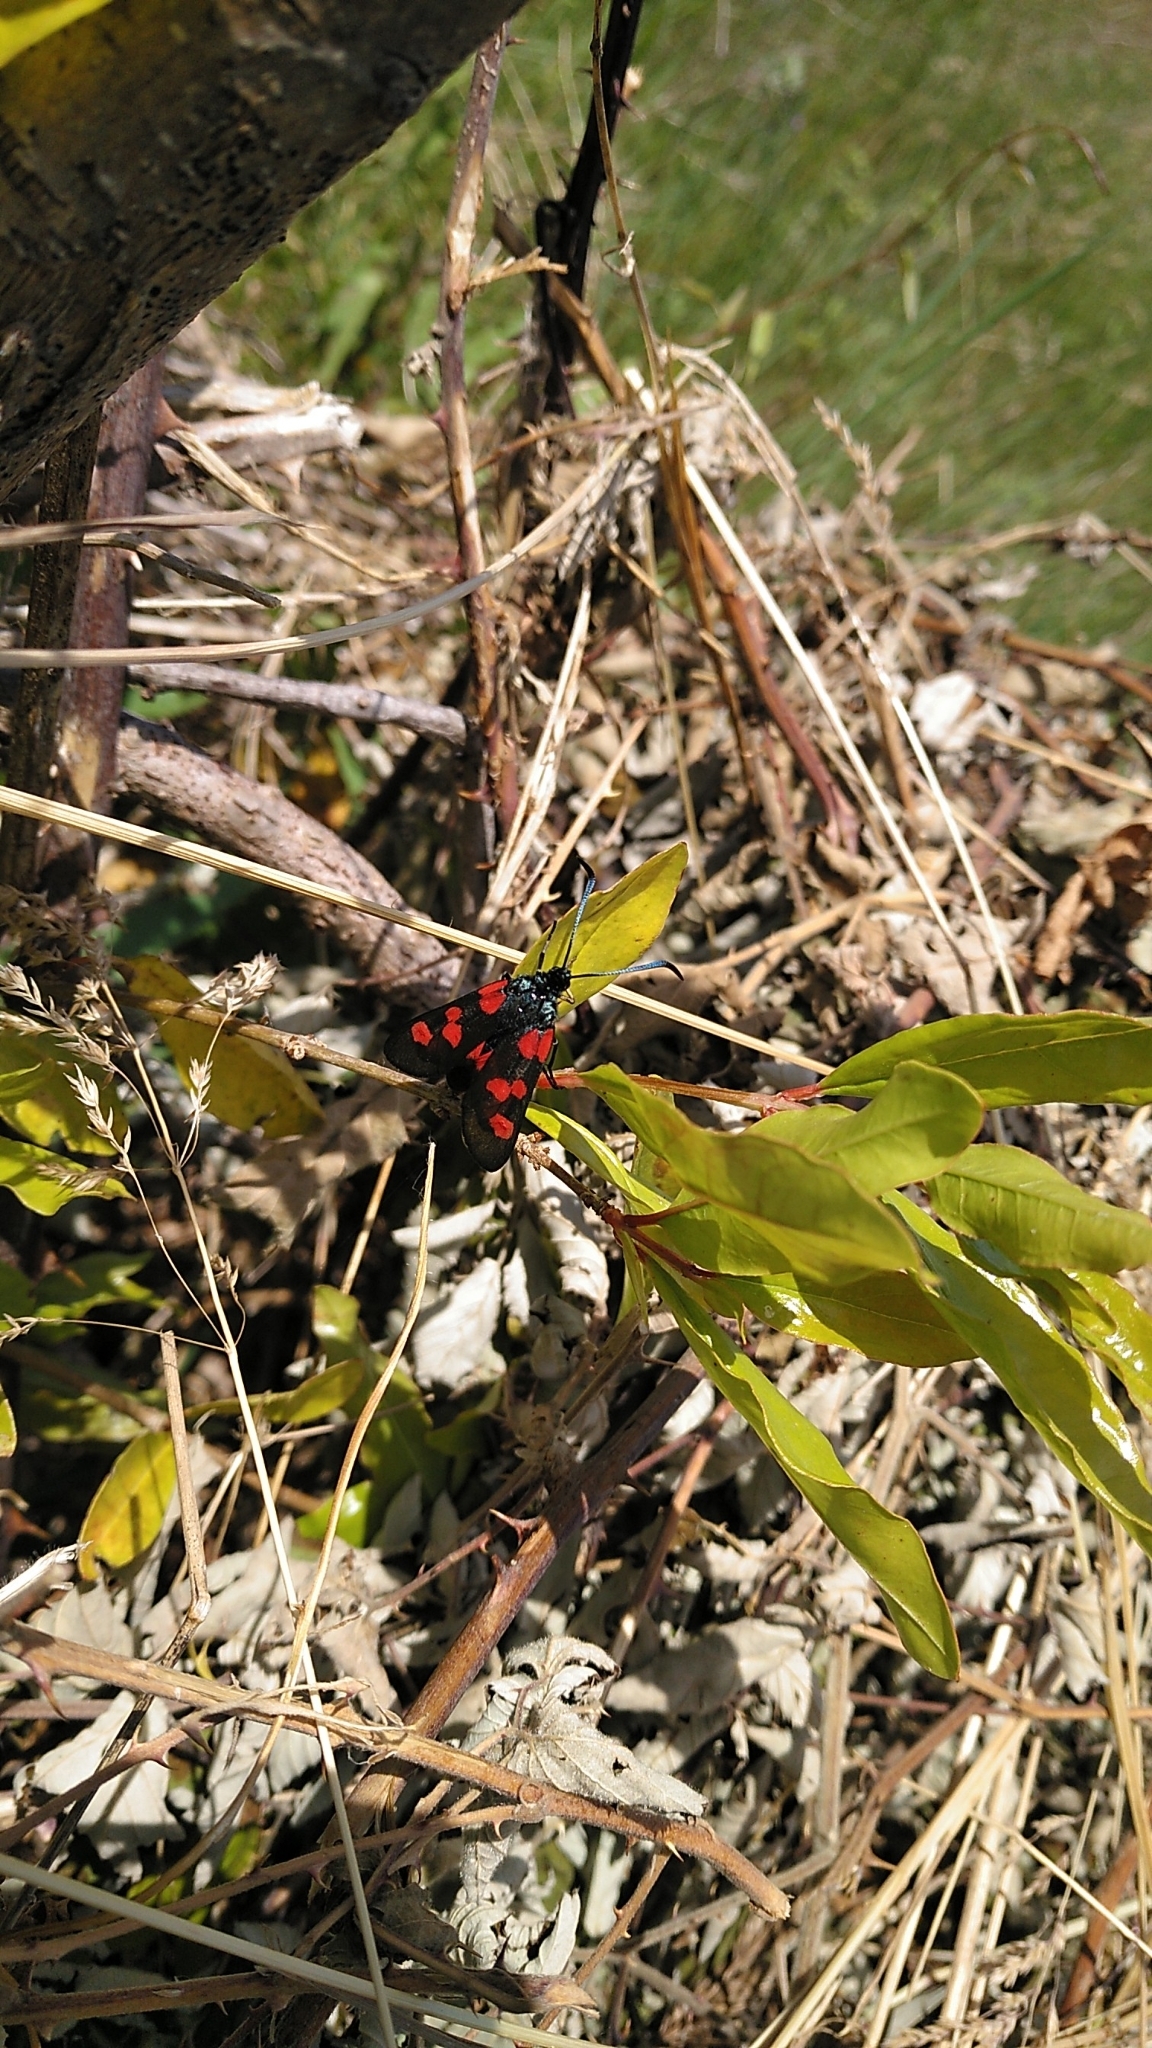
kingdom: Animalia
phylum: Arthropoda
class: Insecta
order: Lepidoptera
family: Zygaenidae
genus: Zygaena
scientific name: Zygaena trifolii
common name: Five-spot burnet
